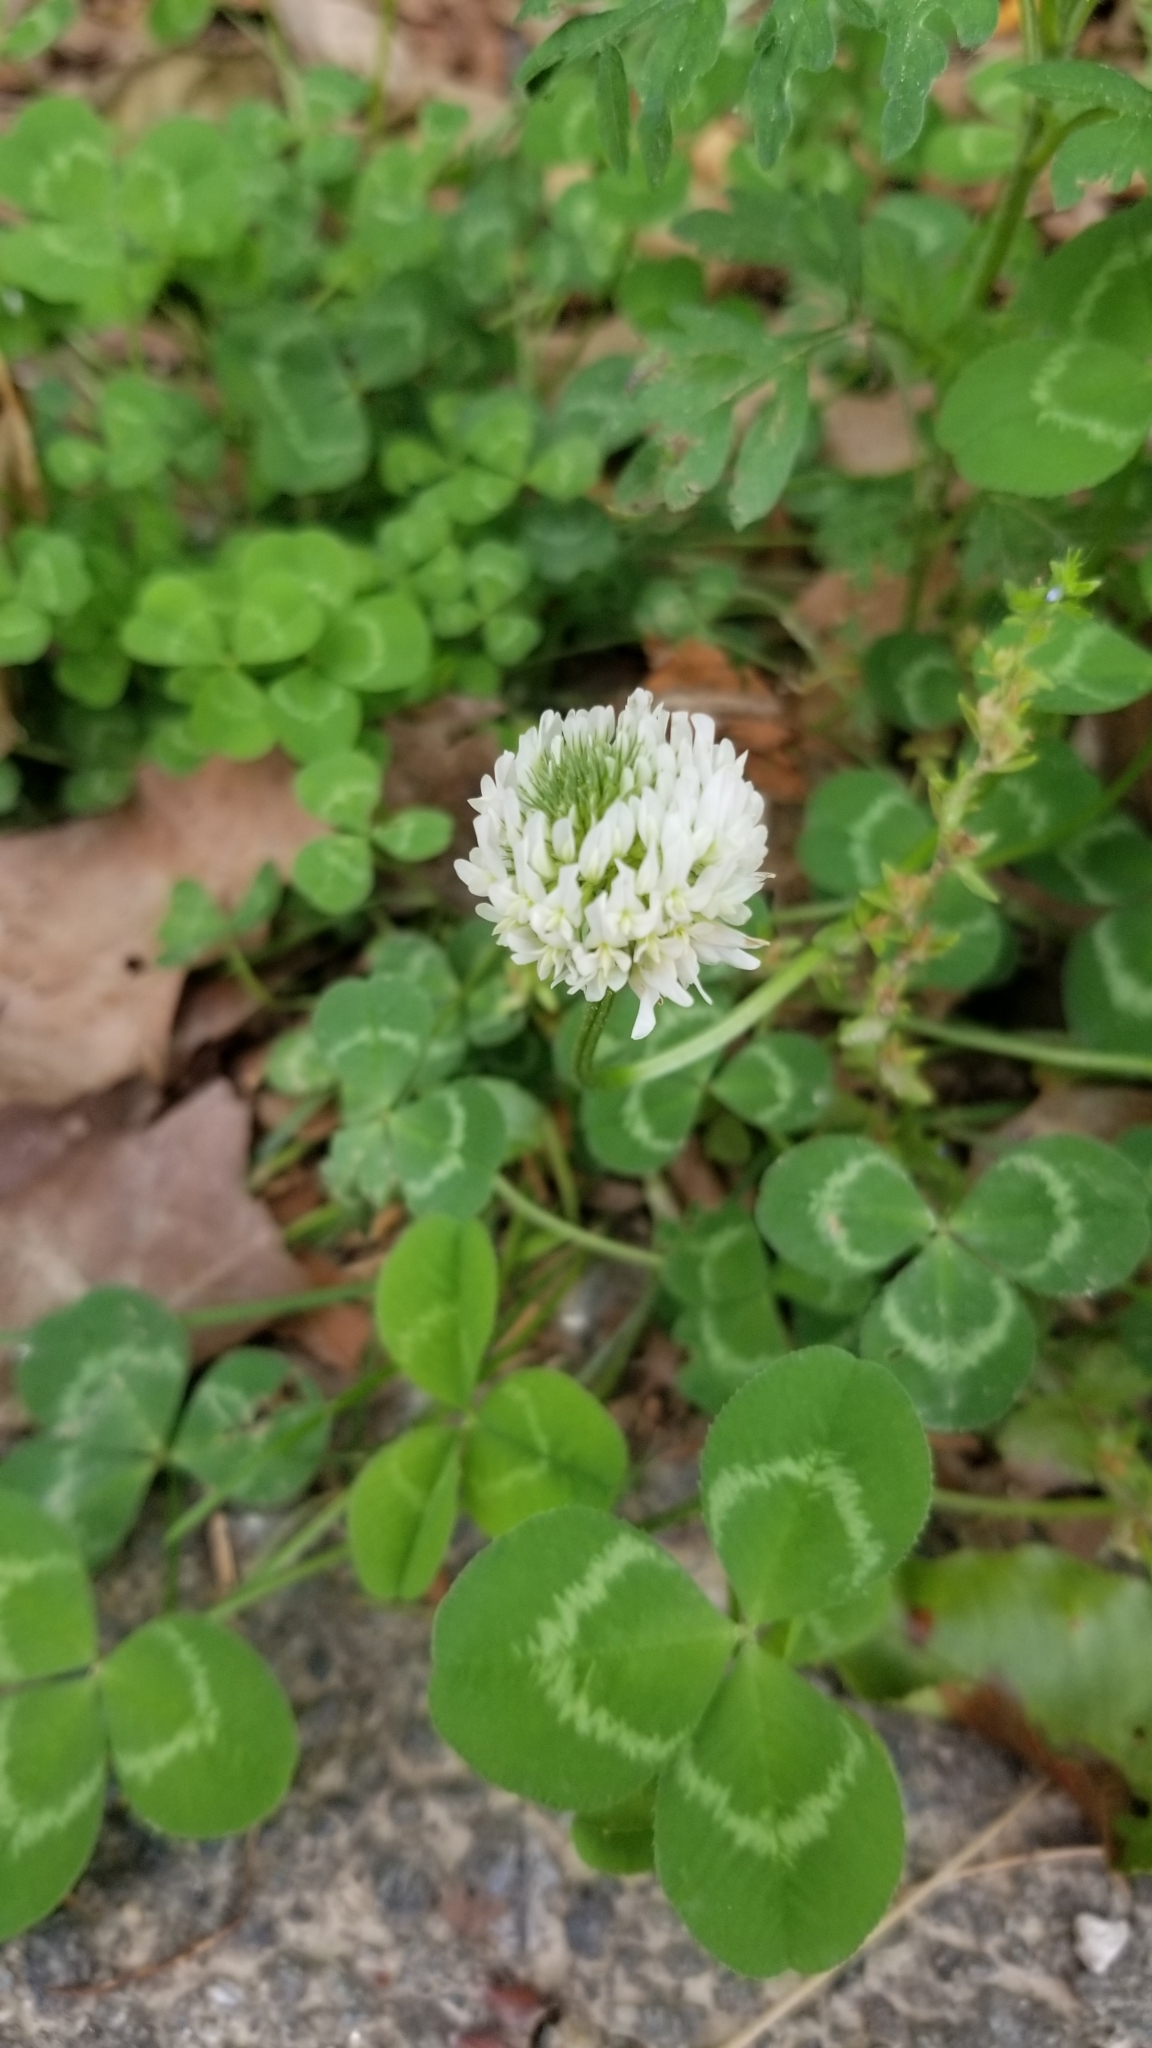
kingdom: Plantae
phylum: Tracheophyta
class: Magnoliopsida
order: Fabales
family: Fabaceae
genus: Trifolium
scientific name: Trifolium repens
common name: White clover
